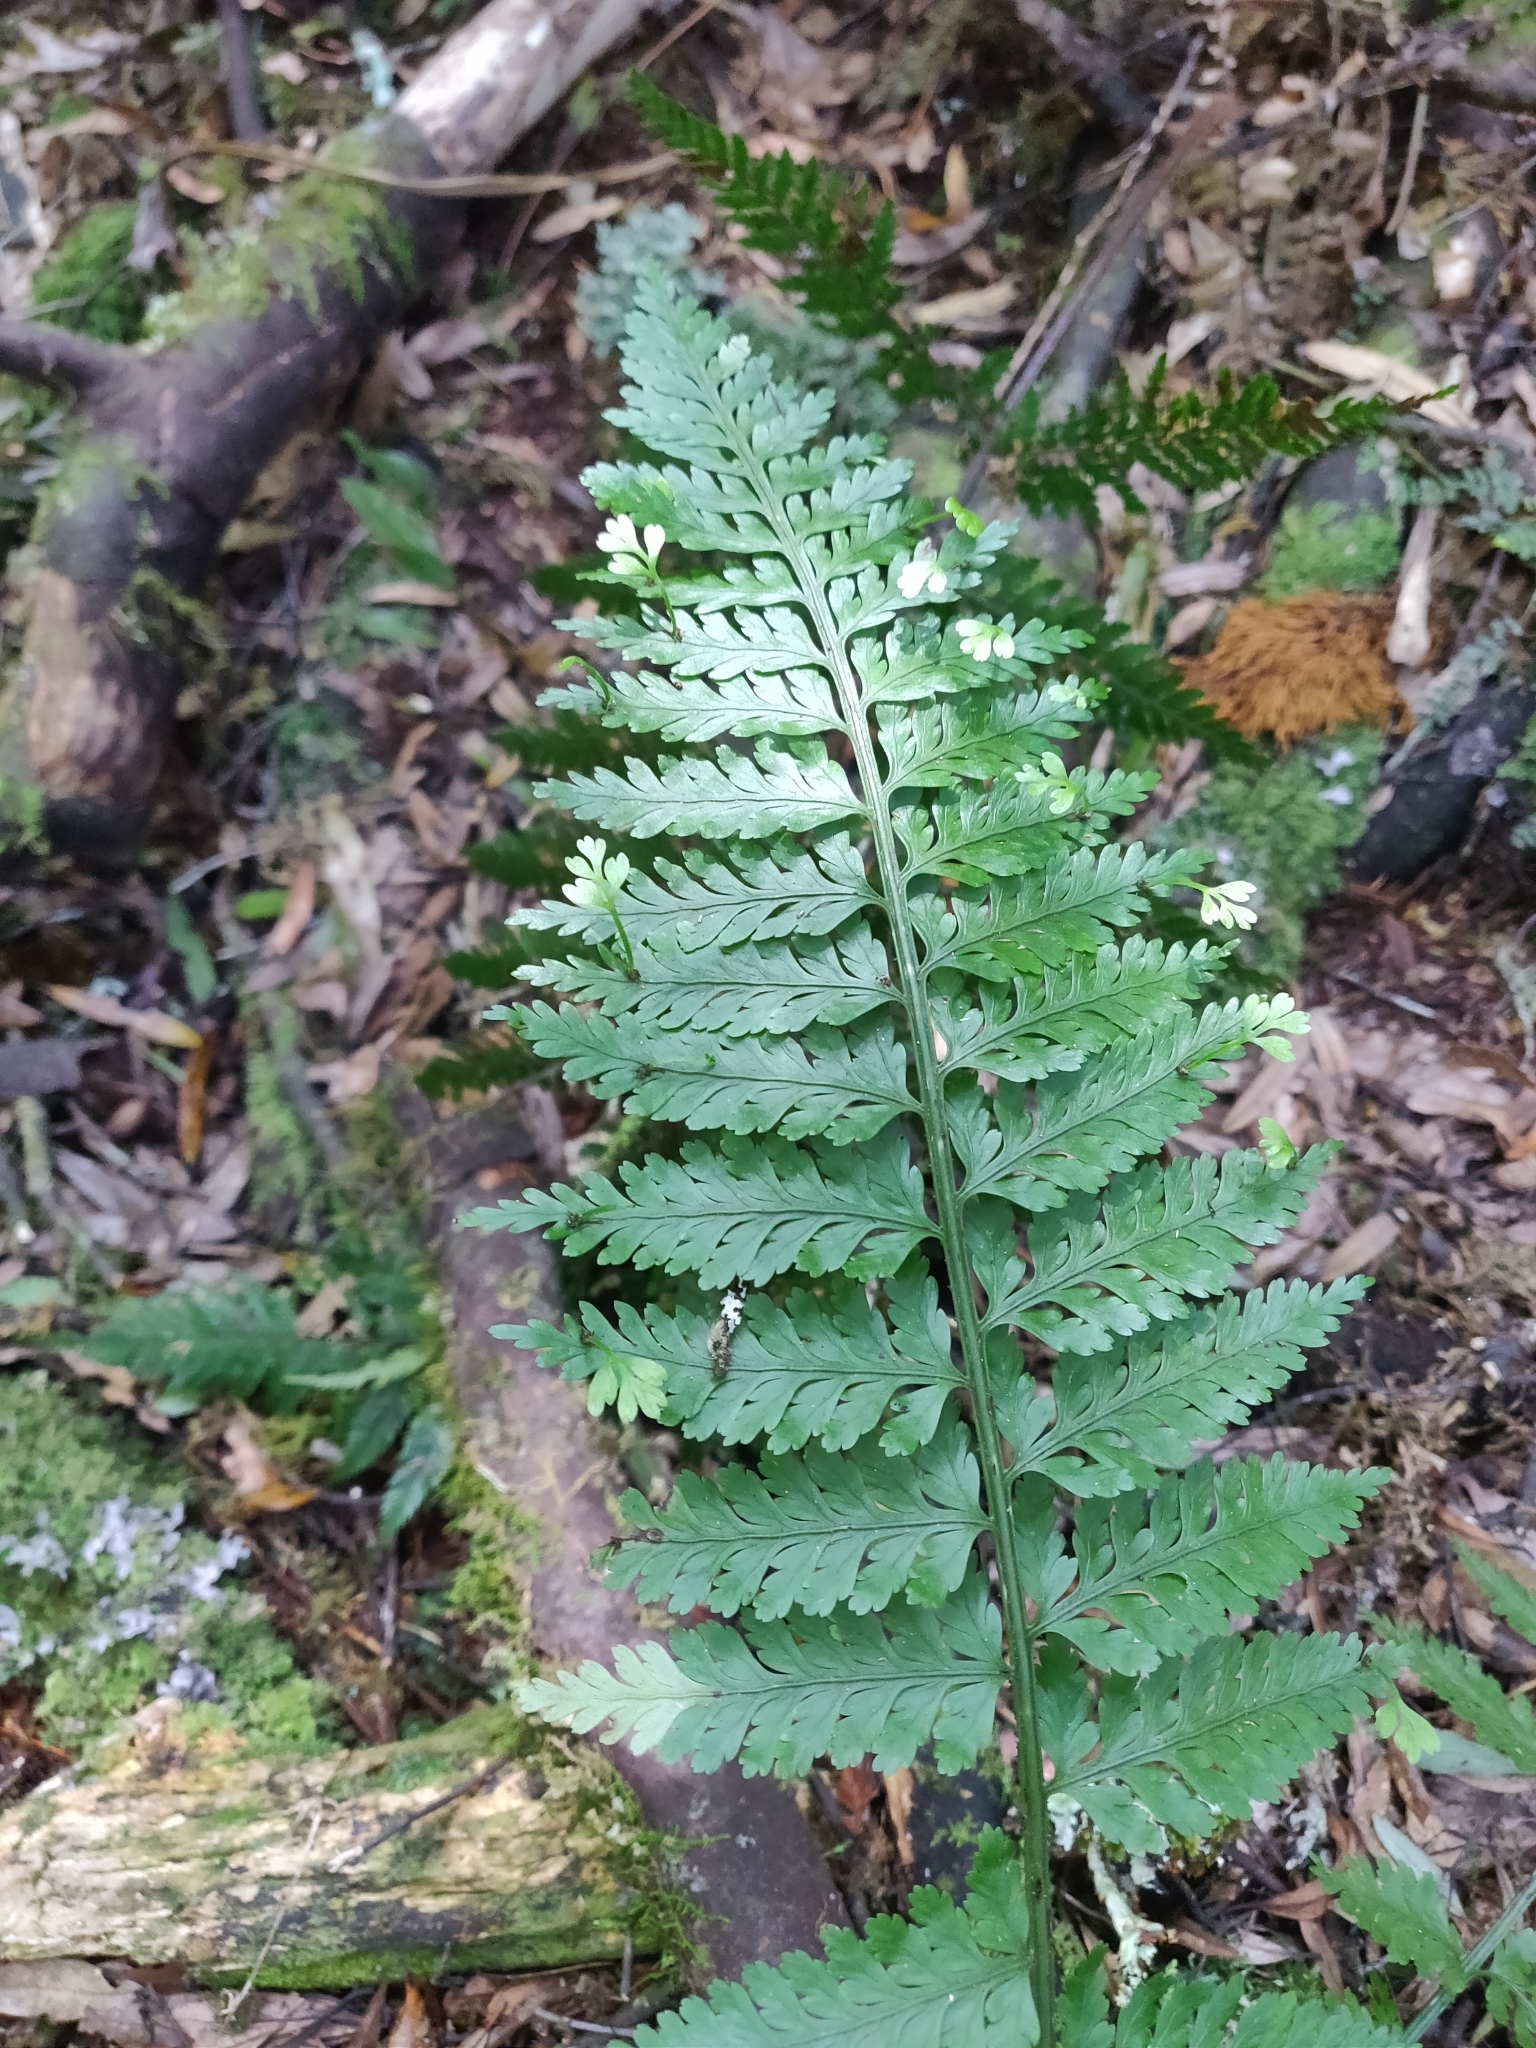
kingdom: Plantae
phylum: Tracheophyta
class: Polypodiopsida
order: Polypodiales
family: Aspleniaceae
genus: Asplenium
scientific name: Asplenium bulbiferum
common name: Mother fern
